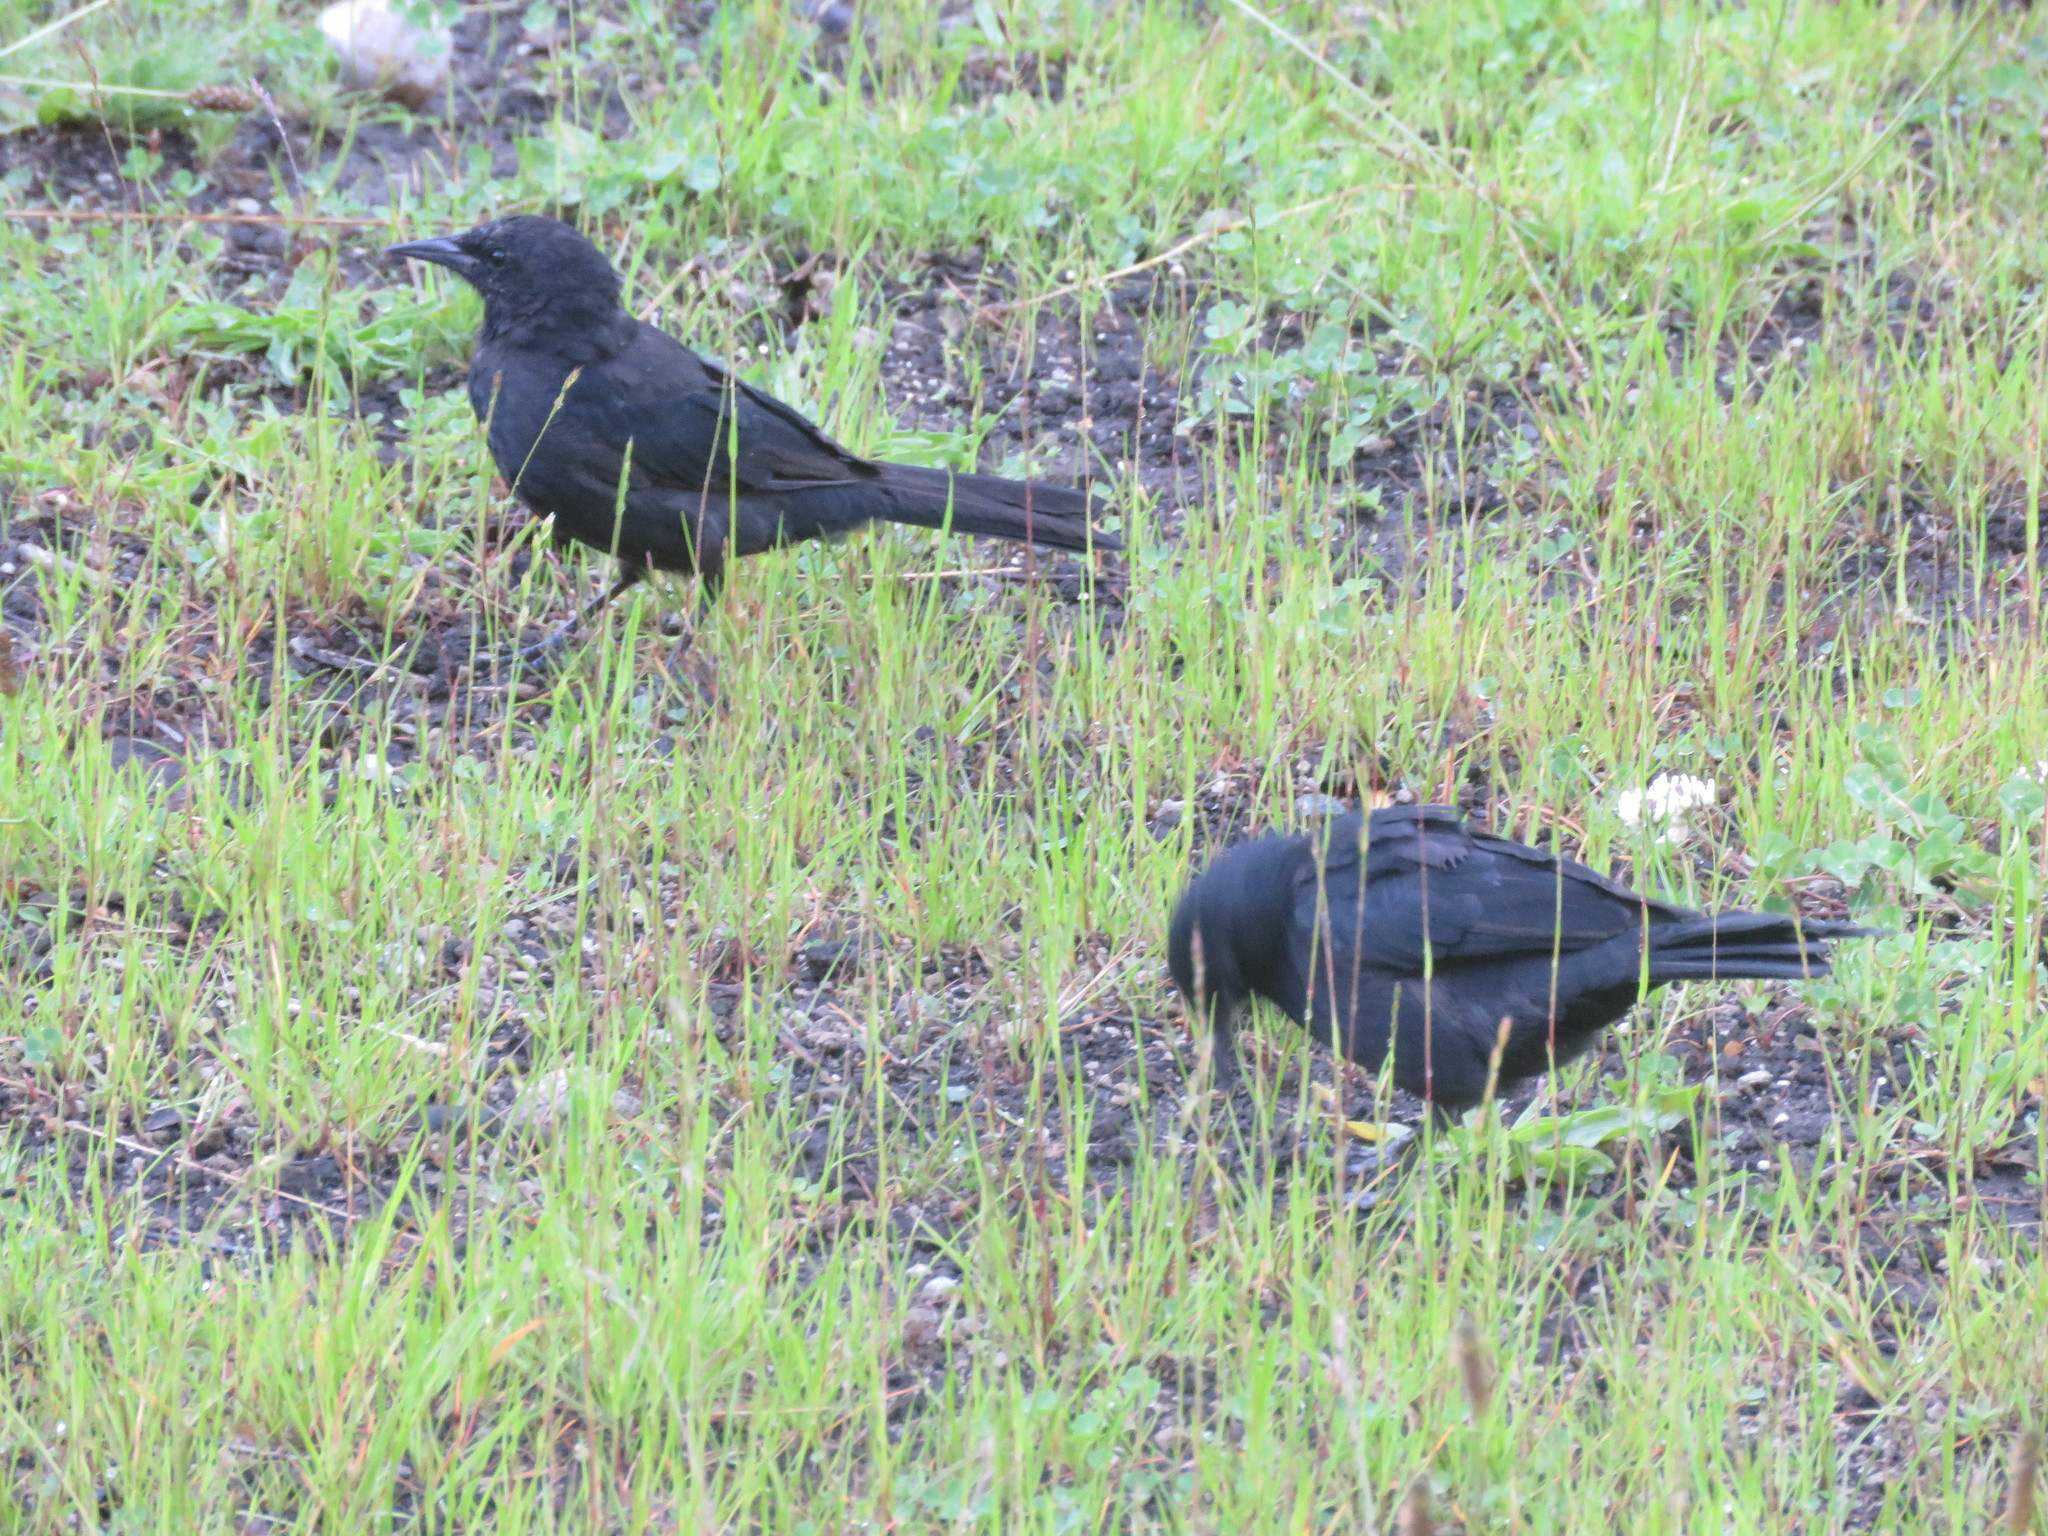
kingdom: Animalia
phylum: Chordata
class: Aves
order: Passeriformes
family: Icteridae
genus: Curaeus
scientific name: Curaeus curaeus
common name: Austral blackbird
